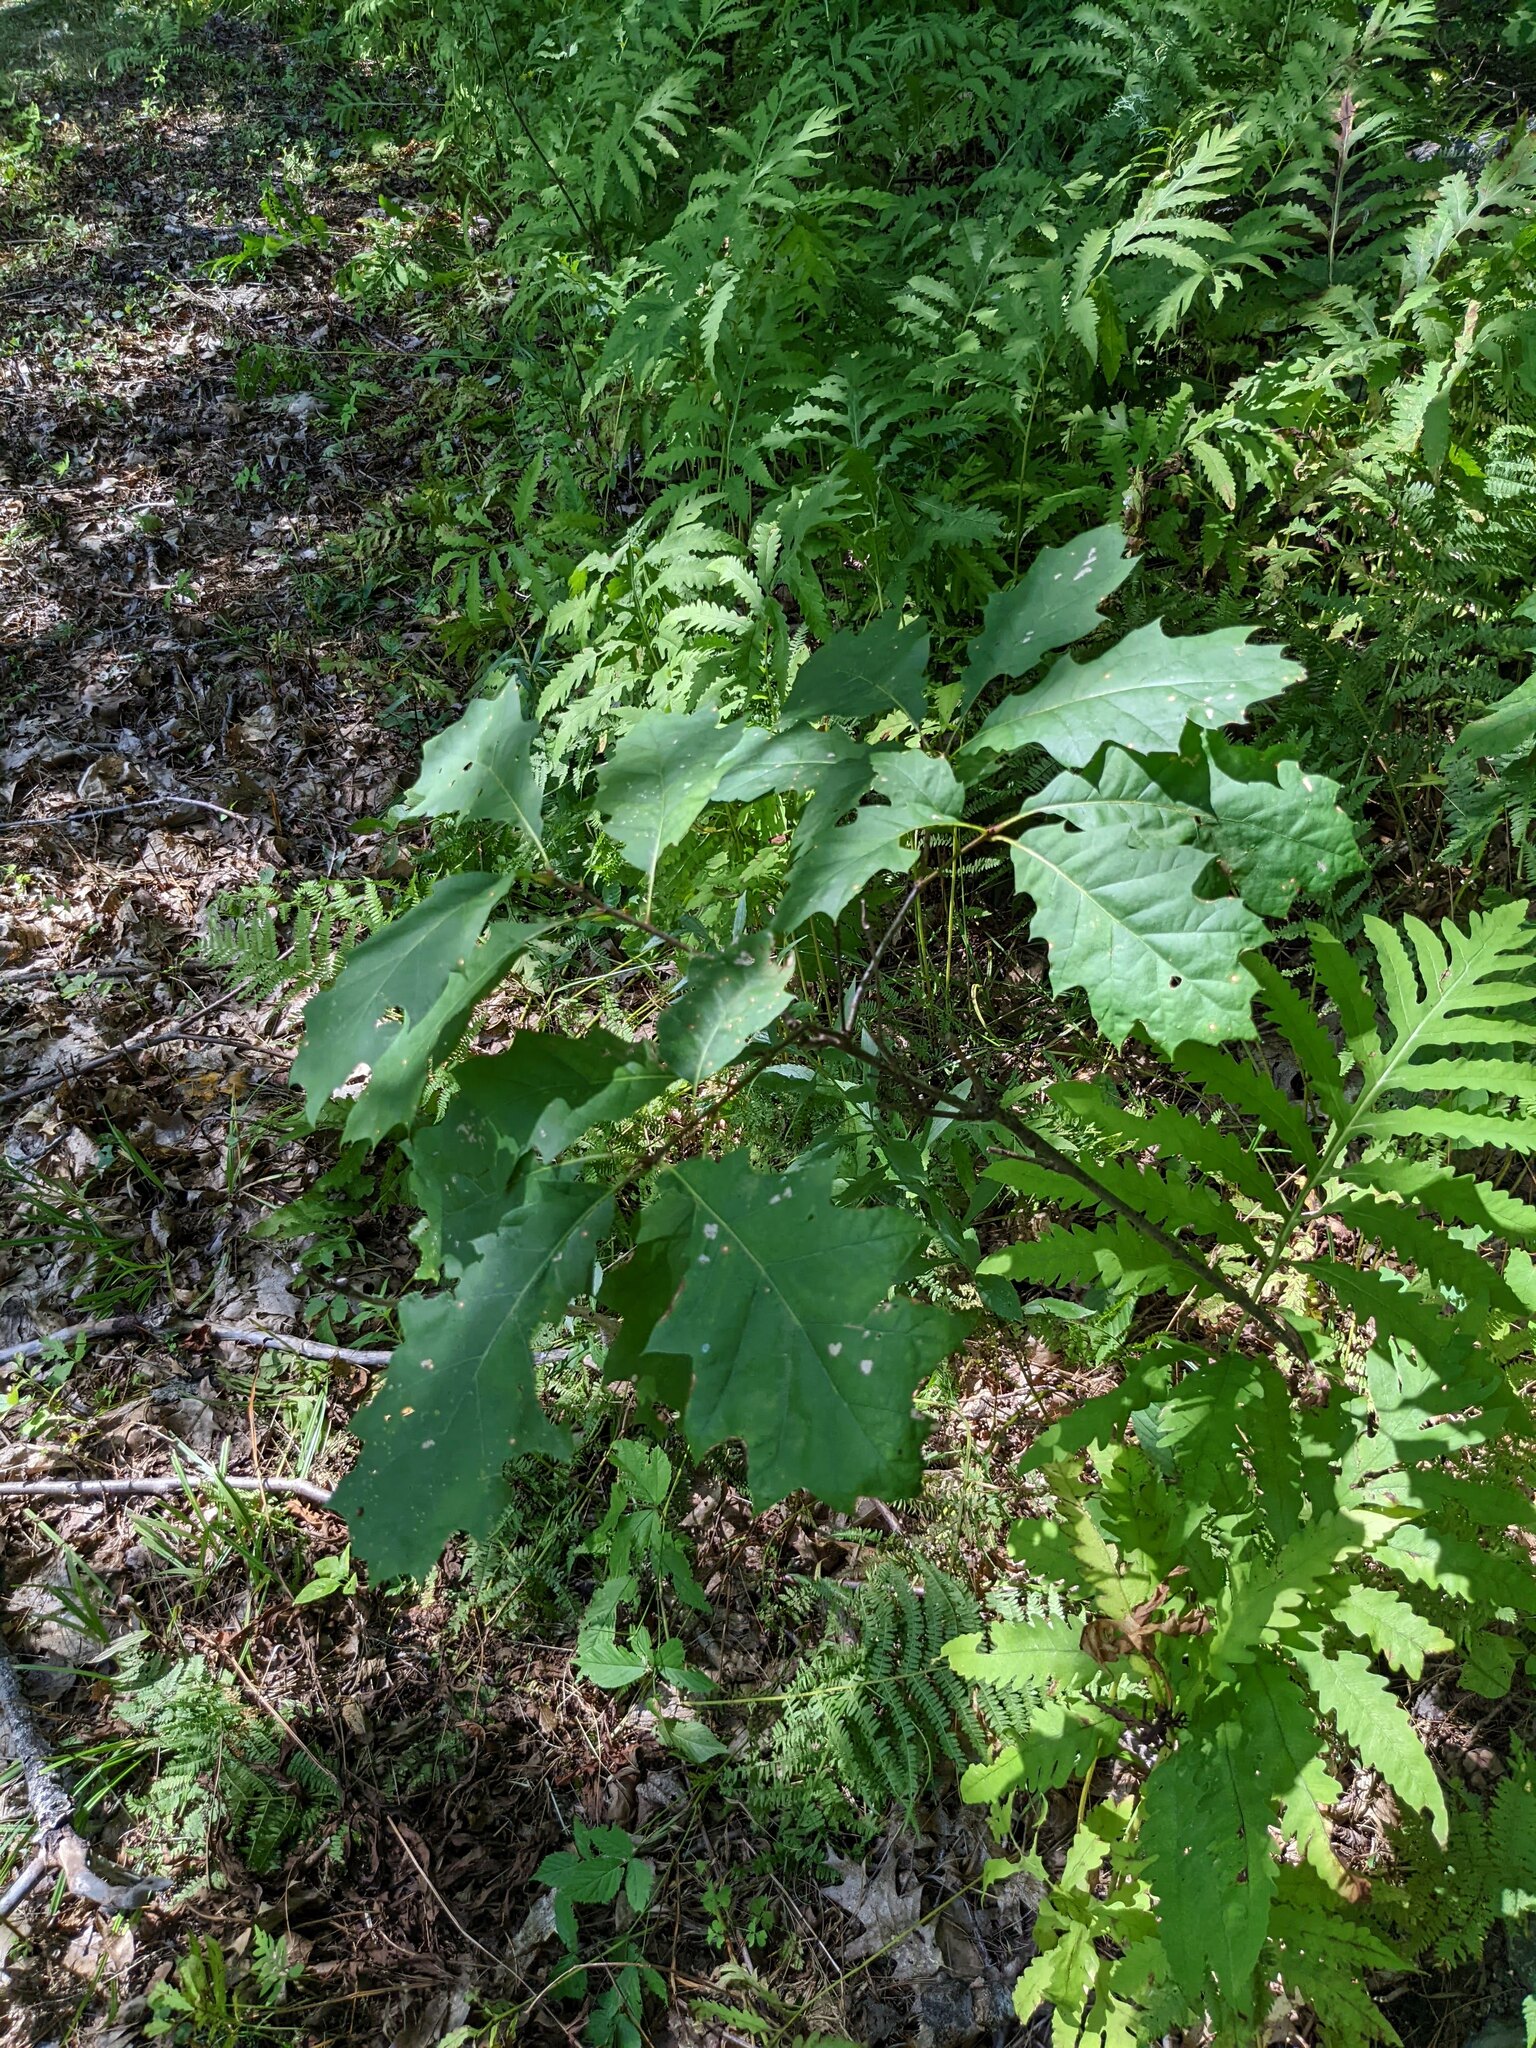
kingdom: Plantae
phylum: Tracheophyta
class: Magnoliopsida
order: Fagales
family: Fagaceae
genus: Quercus
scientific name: Quercus rubra
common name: Red oak
